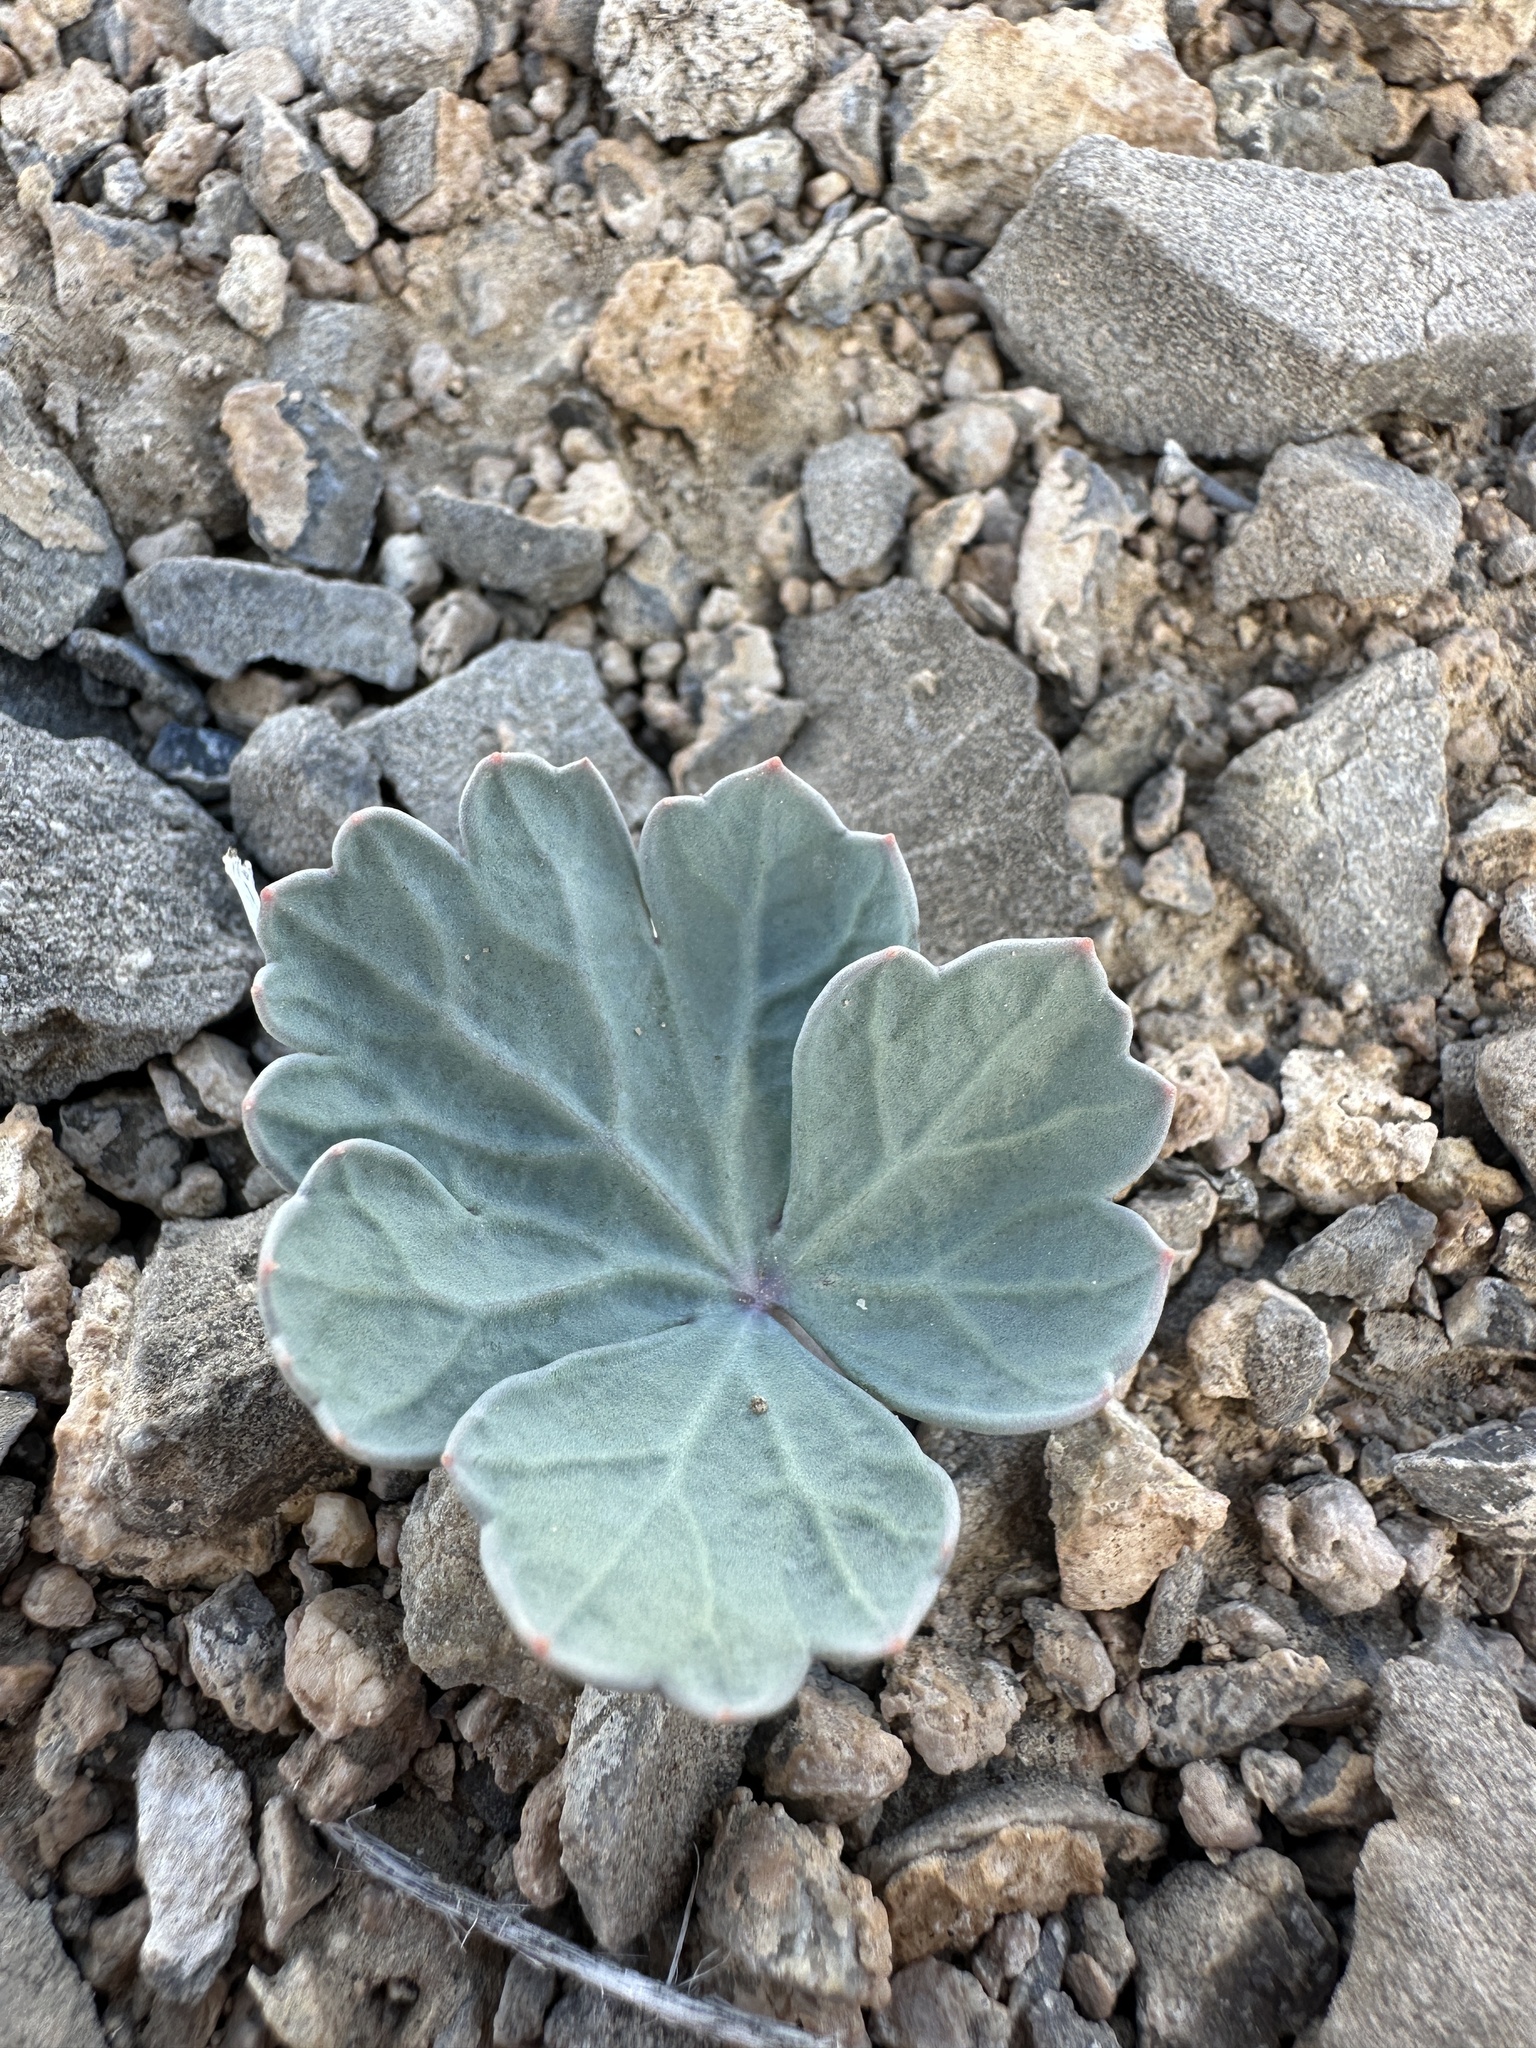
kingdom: Plantae
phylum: Tracheophyta
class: Magnoliopsida
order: Apiales
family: Apiaceae
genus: Aulospermum
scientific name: Aulospermum basalticum
